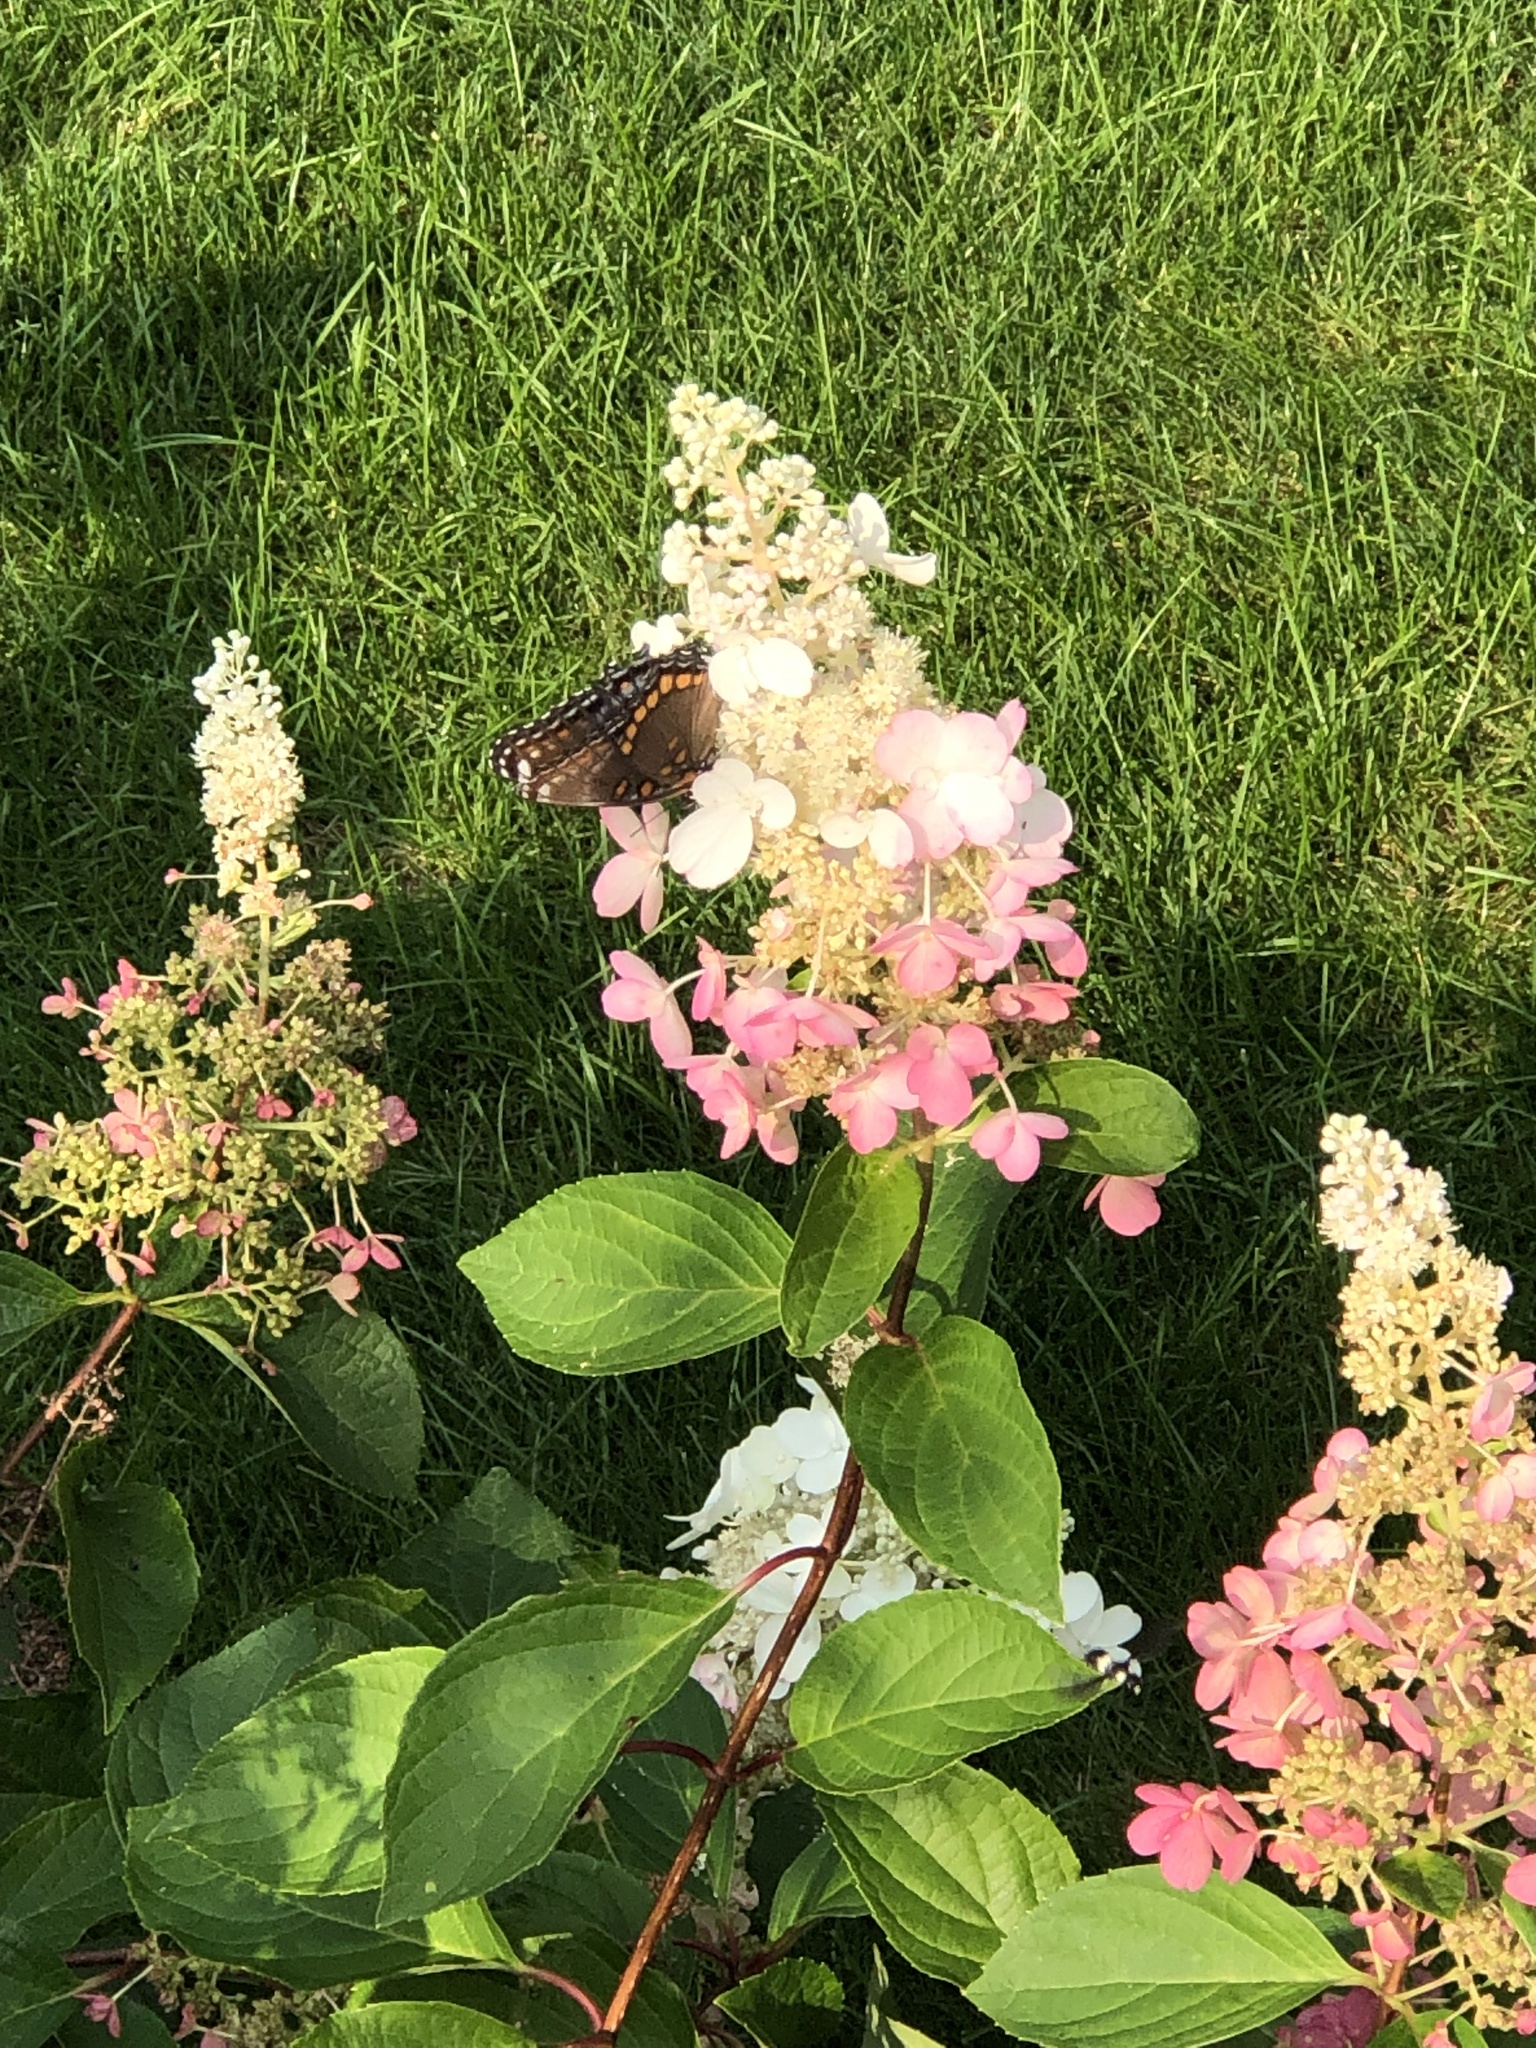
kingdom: Animalia
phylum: Arthropoda
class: Insecta
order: Lepidoptera
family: Nymphalidae
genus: Limenitis
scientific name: Limenitis
